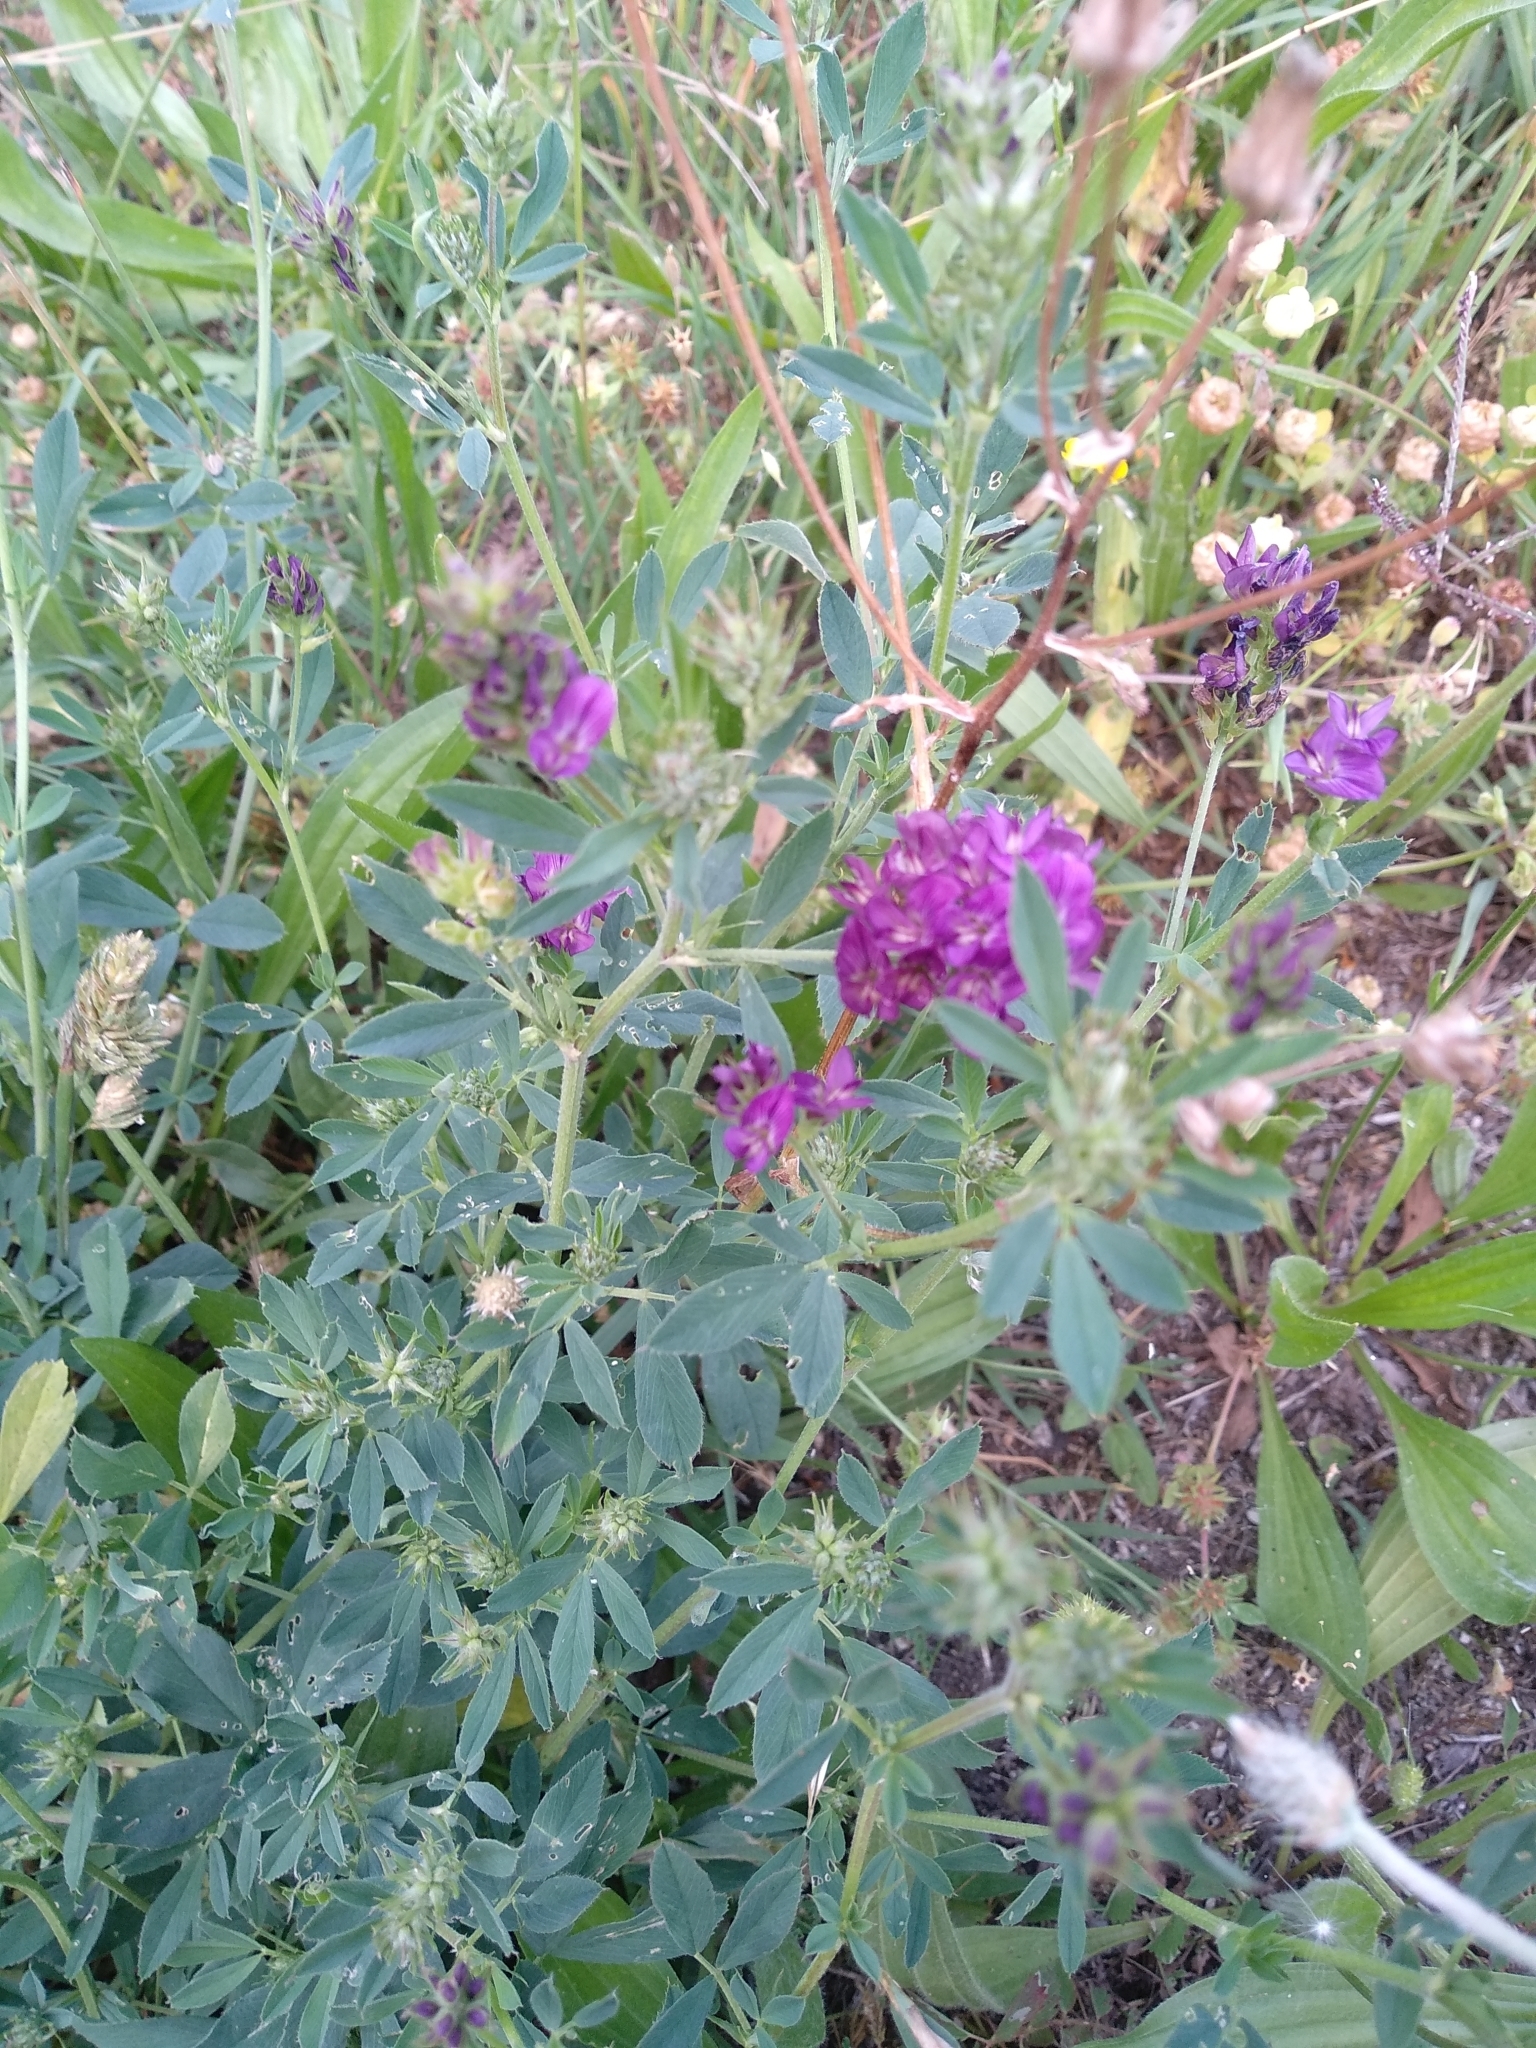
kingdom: Plantae
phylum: Tracheophyta
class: Magnoliopsida
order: Fabales
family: Fabaceae
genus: Medicago
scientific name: Medicago sativa
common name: Alfalfa
